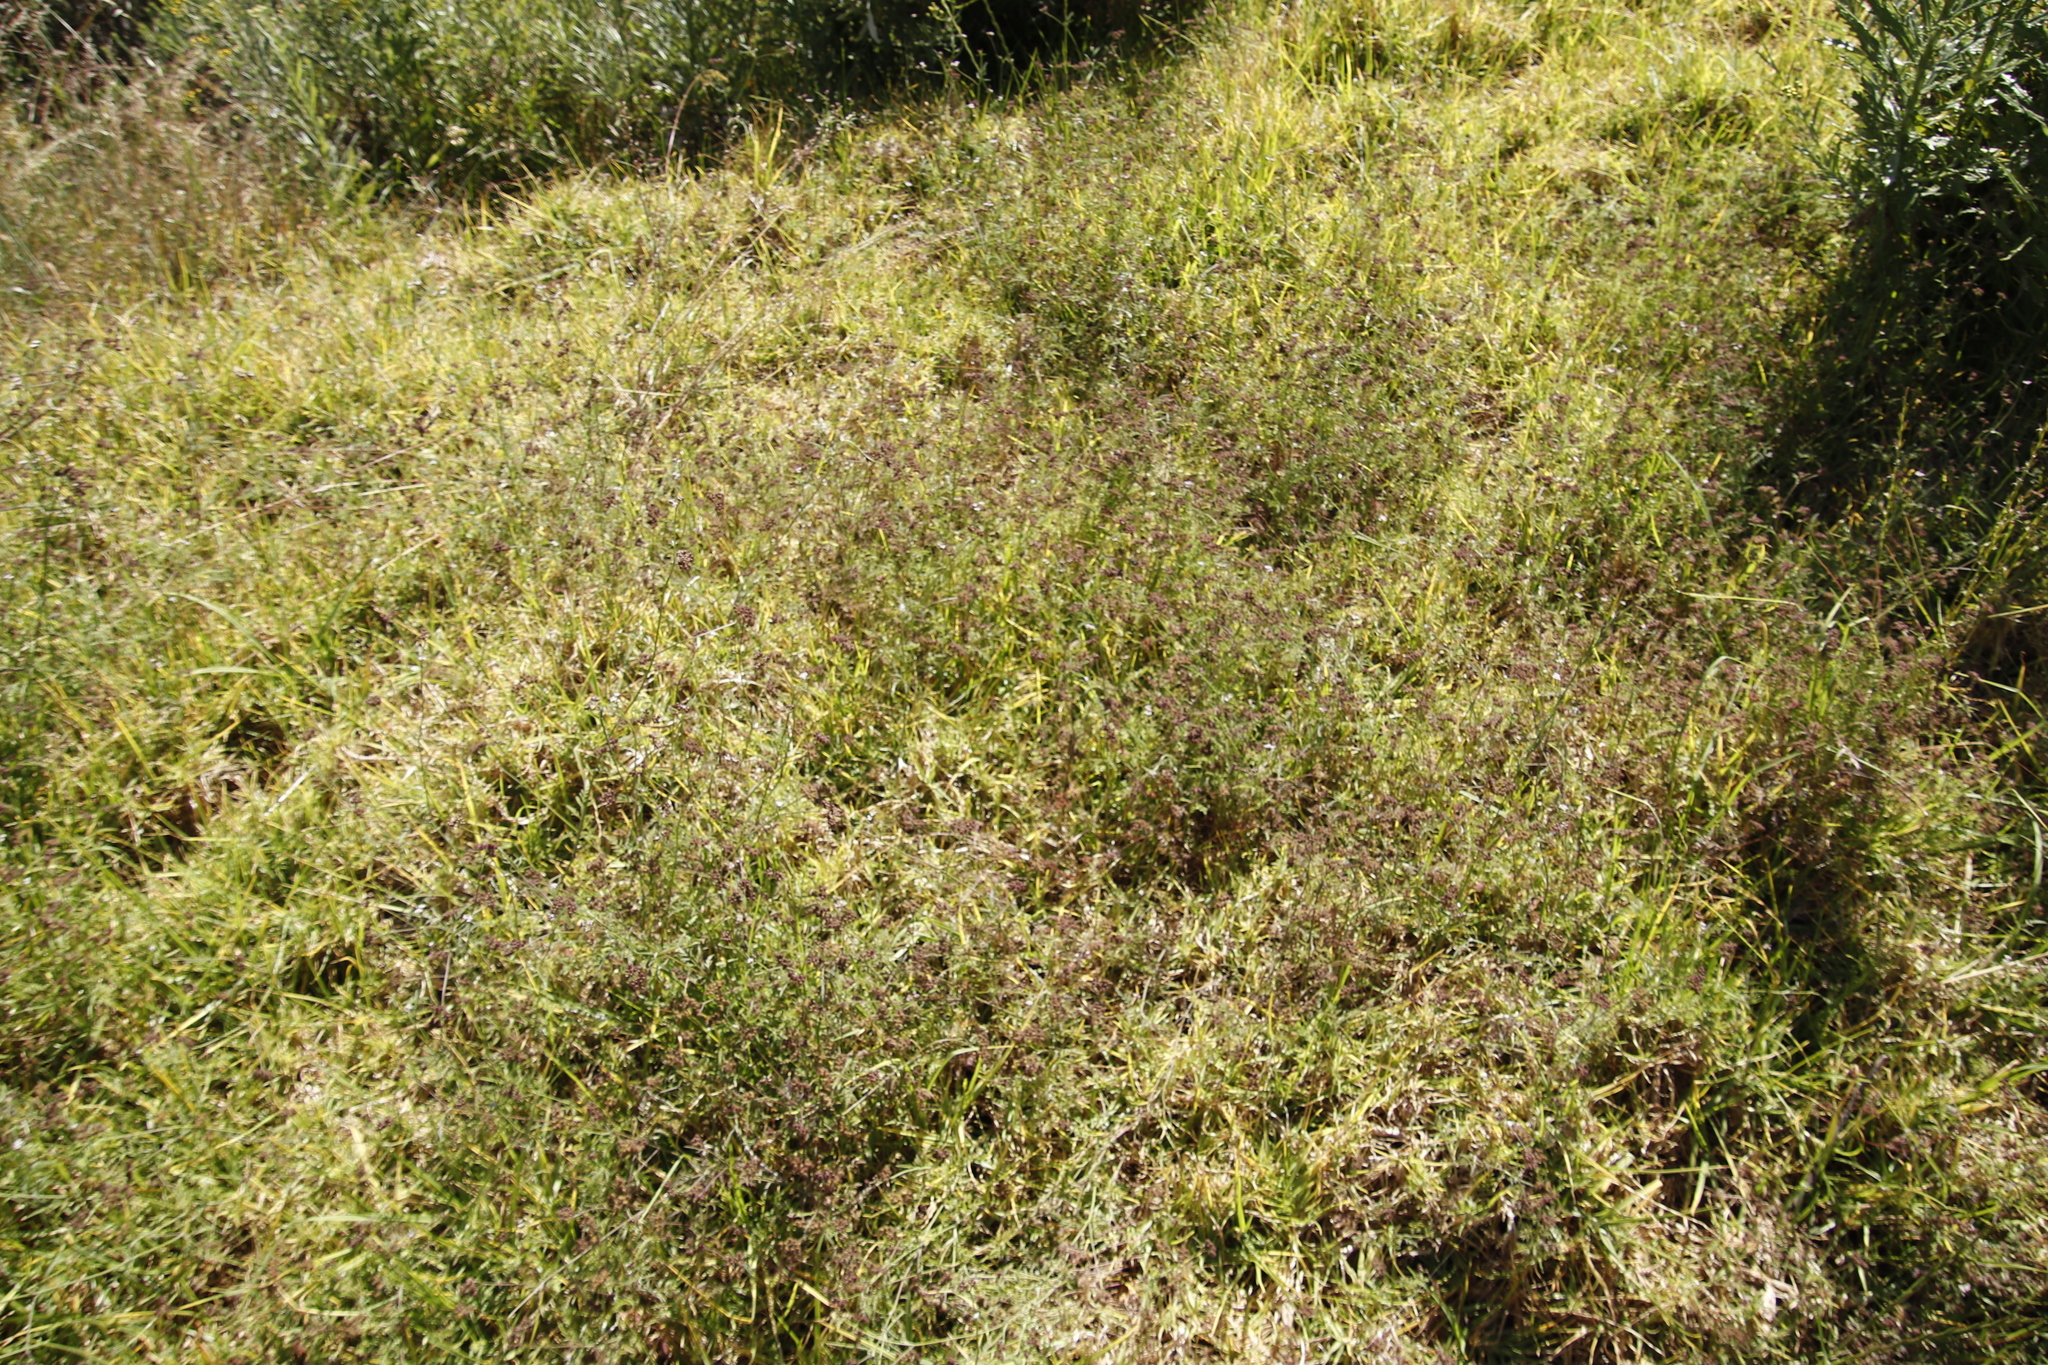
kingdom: Plantae
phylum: Tracheophyta
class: Liliopsida
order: Poales
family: Poaceae
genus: Cenchrus
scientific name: Cenchrus clandestinus
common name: Kikuyugrass
